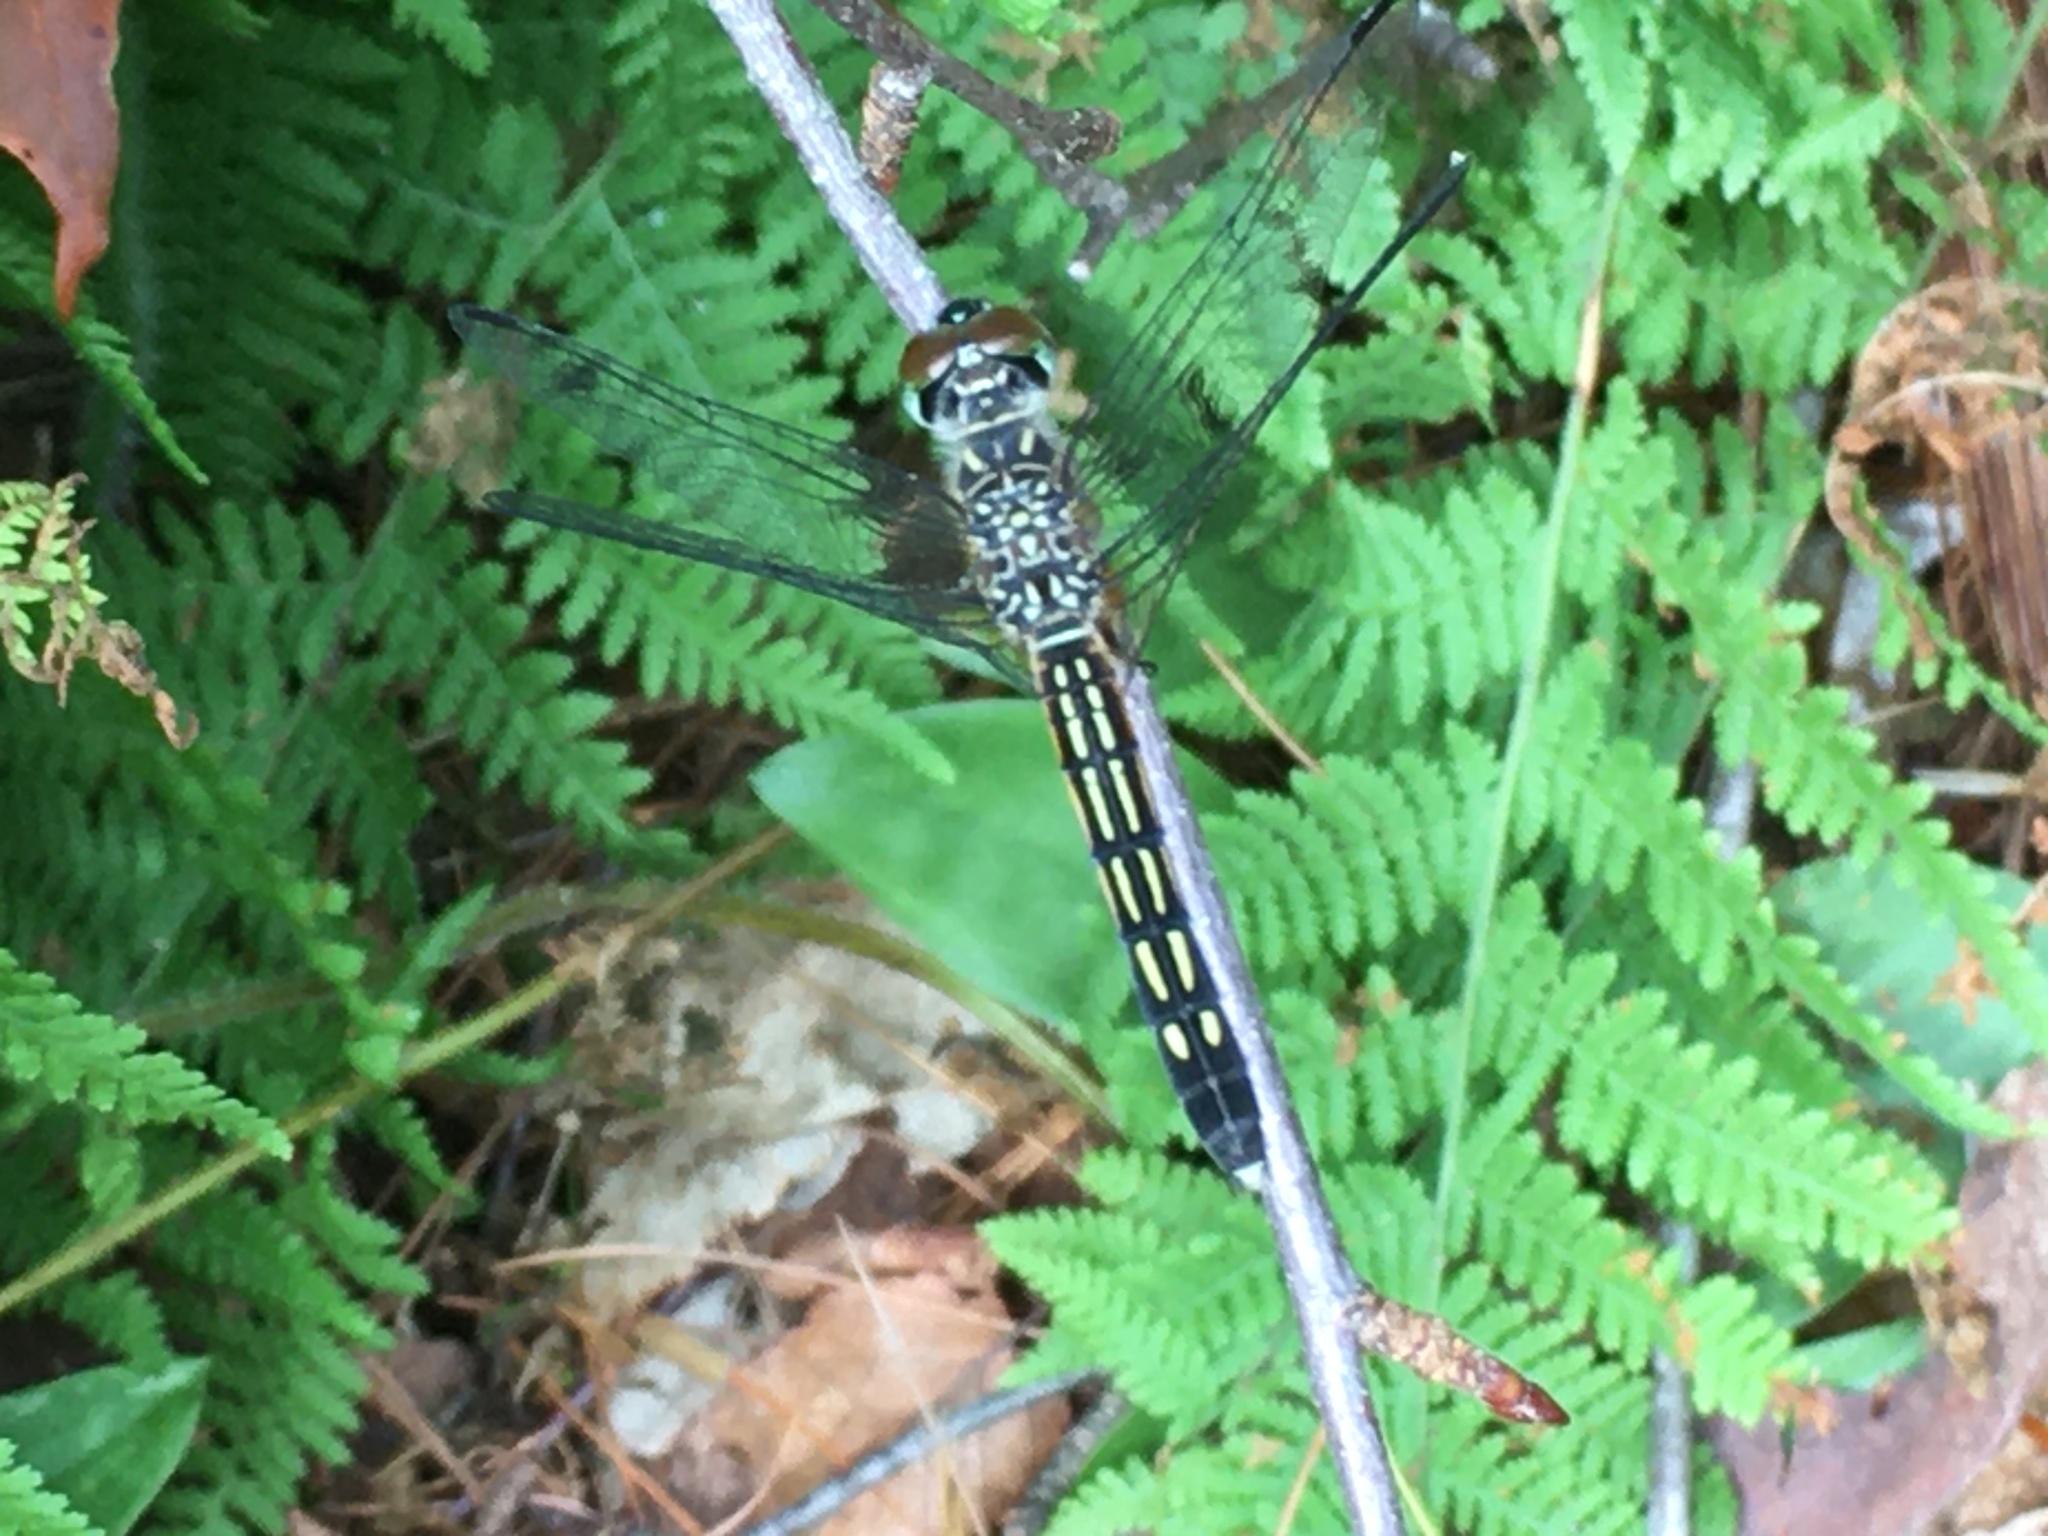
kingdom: Animalia
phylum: Arthropoda
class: Insecta
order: Odonata
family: Libellulidae
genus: Pachydiplax
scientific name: Pachydiplax longipennis
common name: Blue dasher
